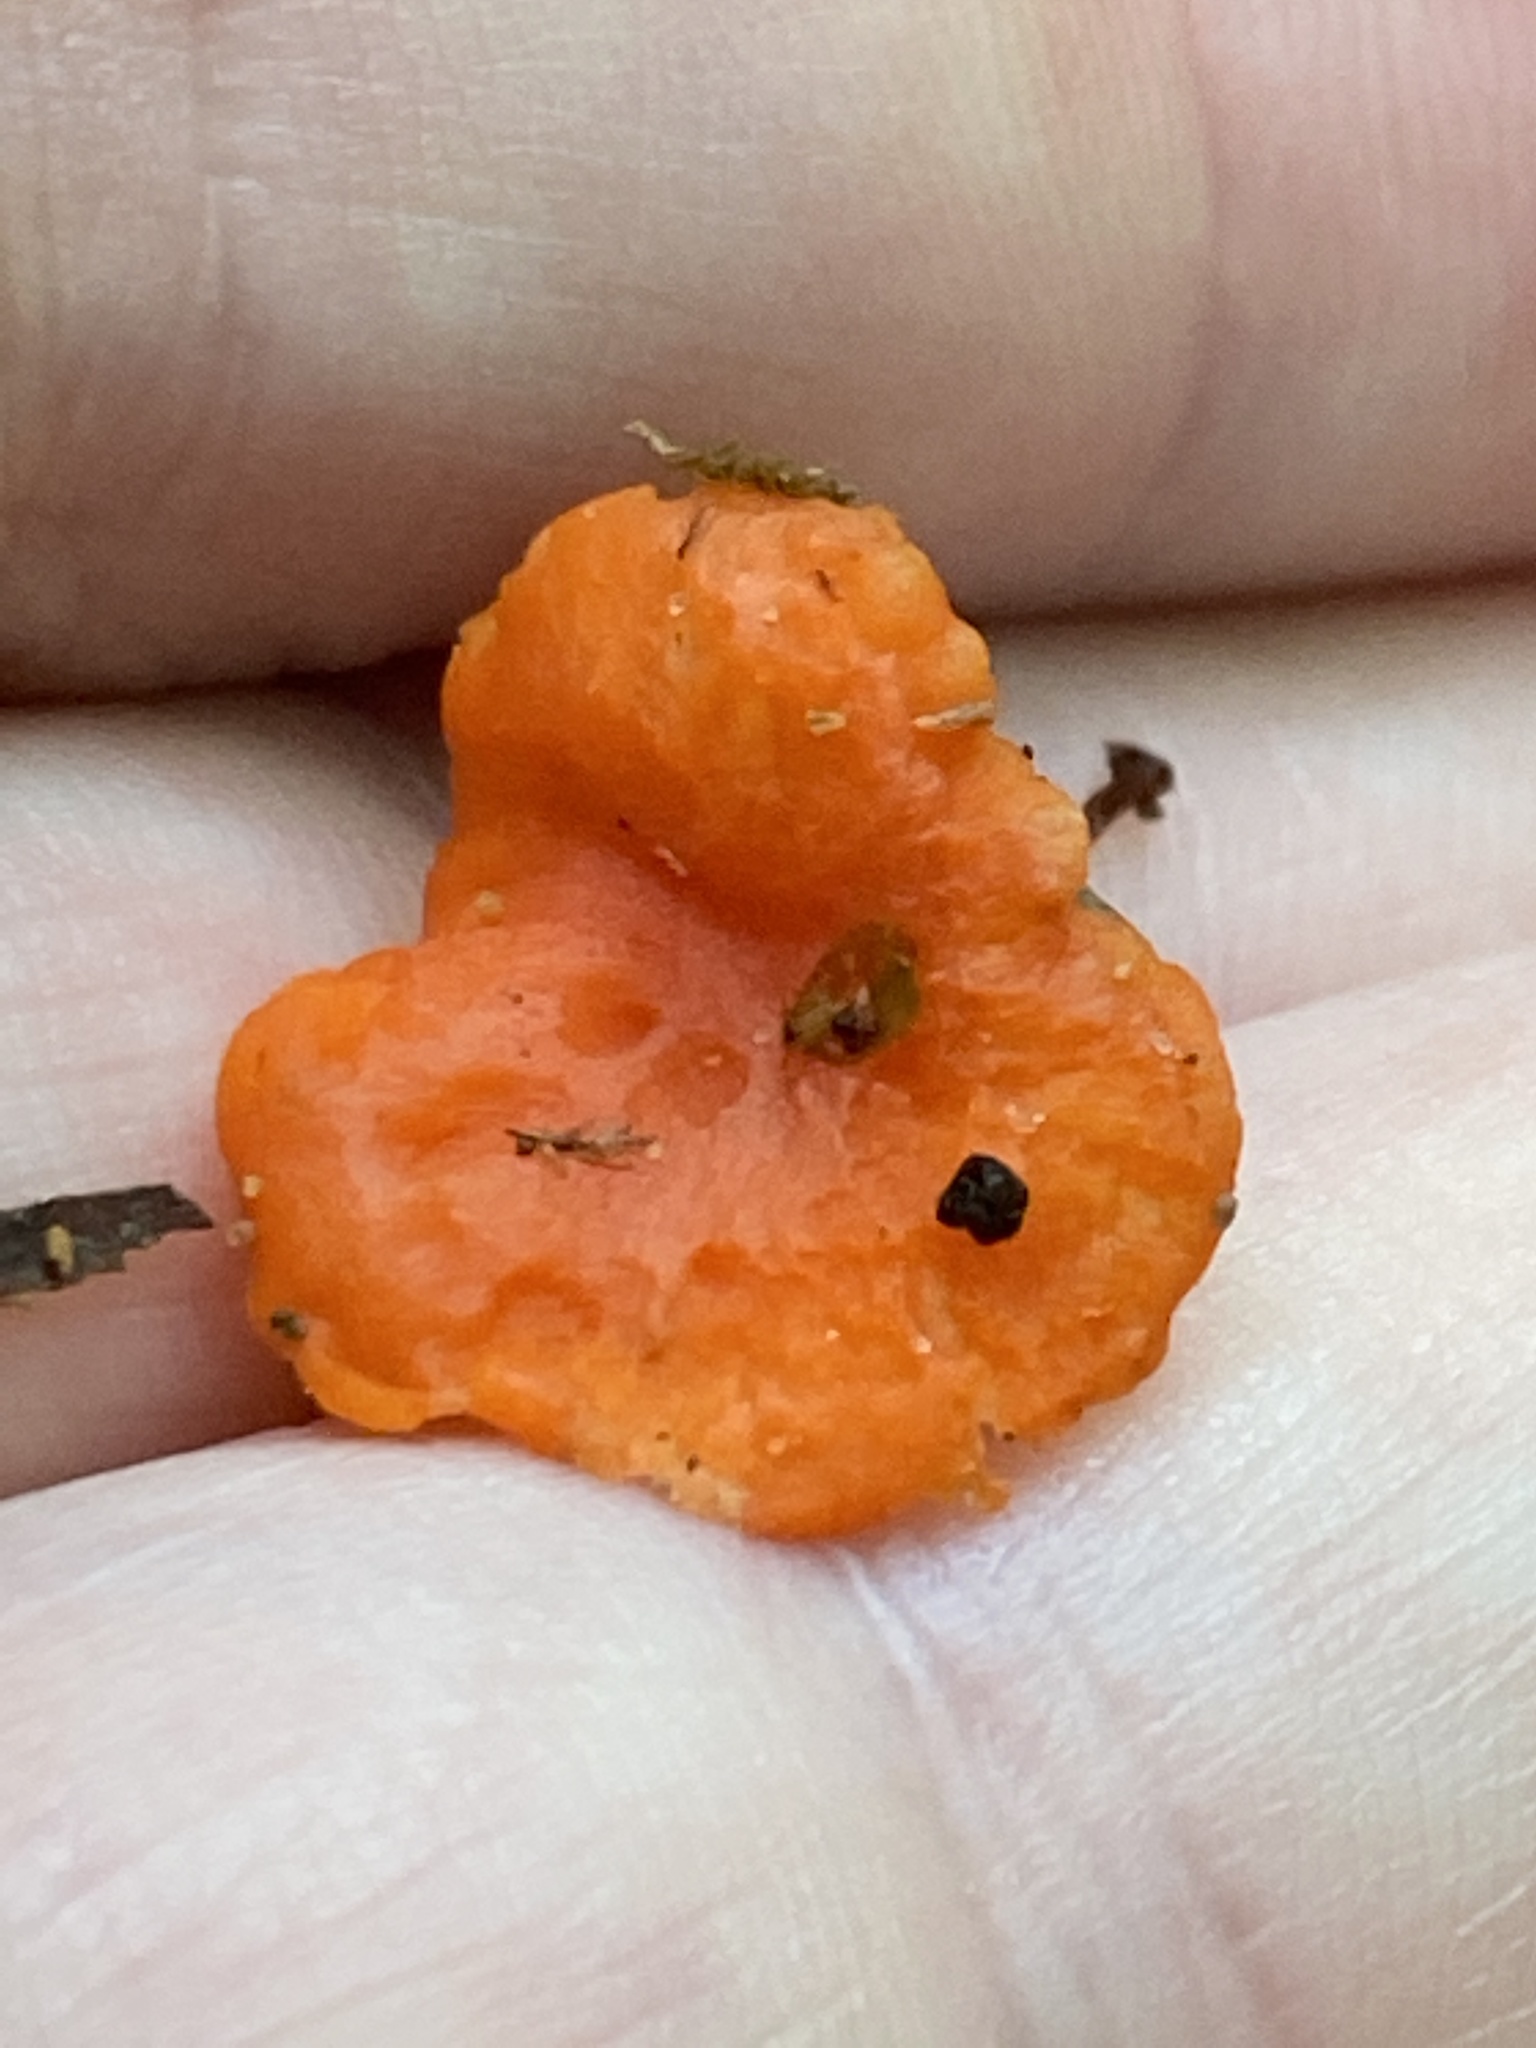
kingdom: Fungi
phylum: Basidiomycota
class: Agaricomycetes
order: Cantharellales
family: Hydnaceae
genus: Cantharellus
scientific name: Cantharellus cinnabarinus
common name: Cinnabar chanterelle
